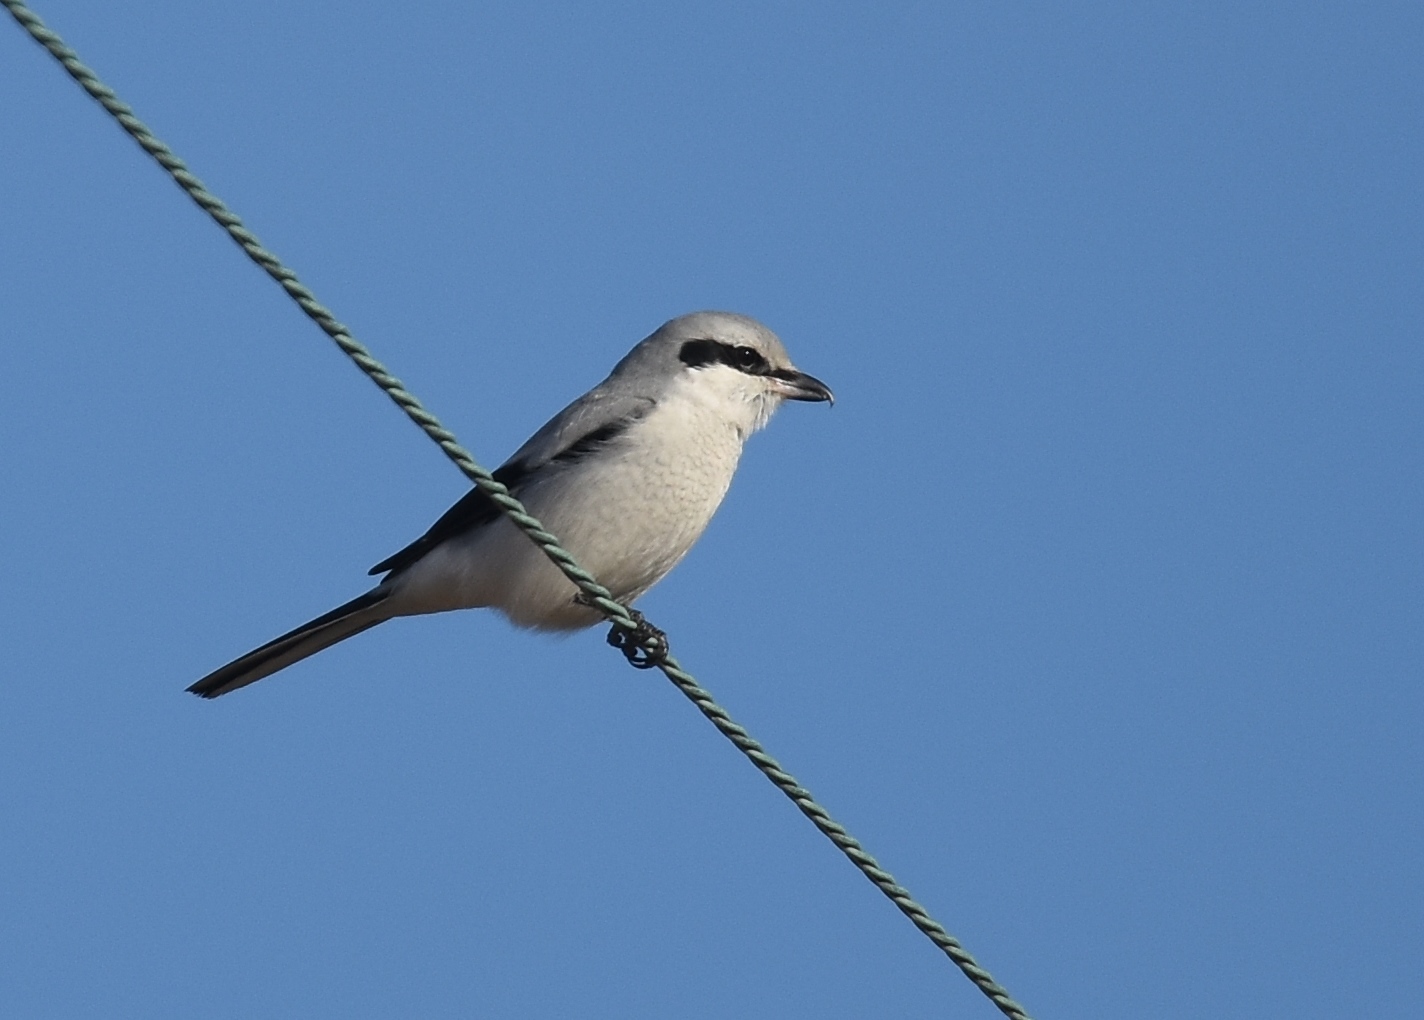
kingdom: Animalia
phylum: Chordata
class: Aves
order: Passeriformes
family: Laniidae
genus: Lanius
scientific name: Lanius borealis
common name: Northern shrike
